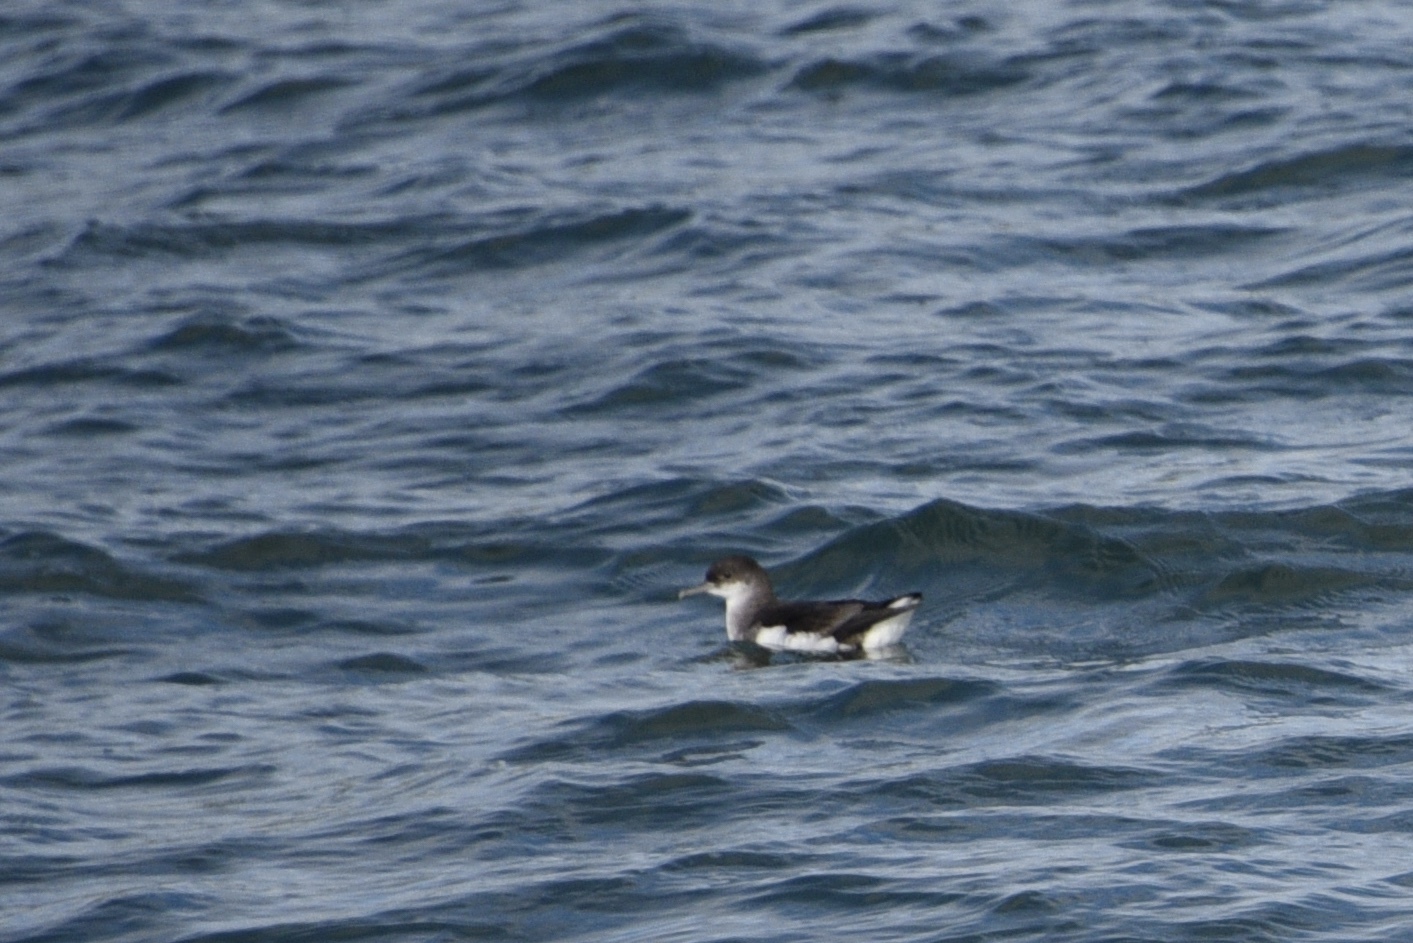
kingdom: Animalia
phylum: Chordata
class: Aves
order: Procellariiformes
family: Procellariidae
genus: Puffinus
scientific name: Puffinus gavia
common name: Fluttering shearwater
